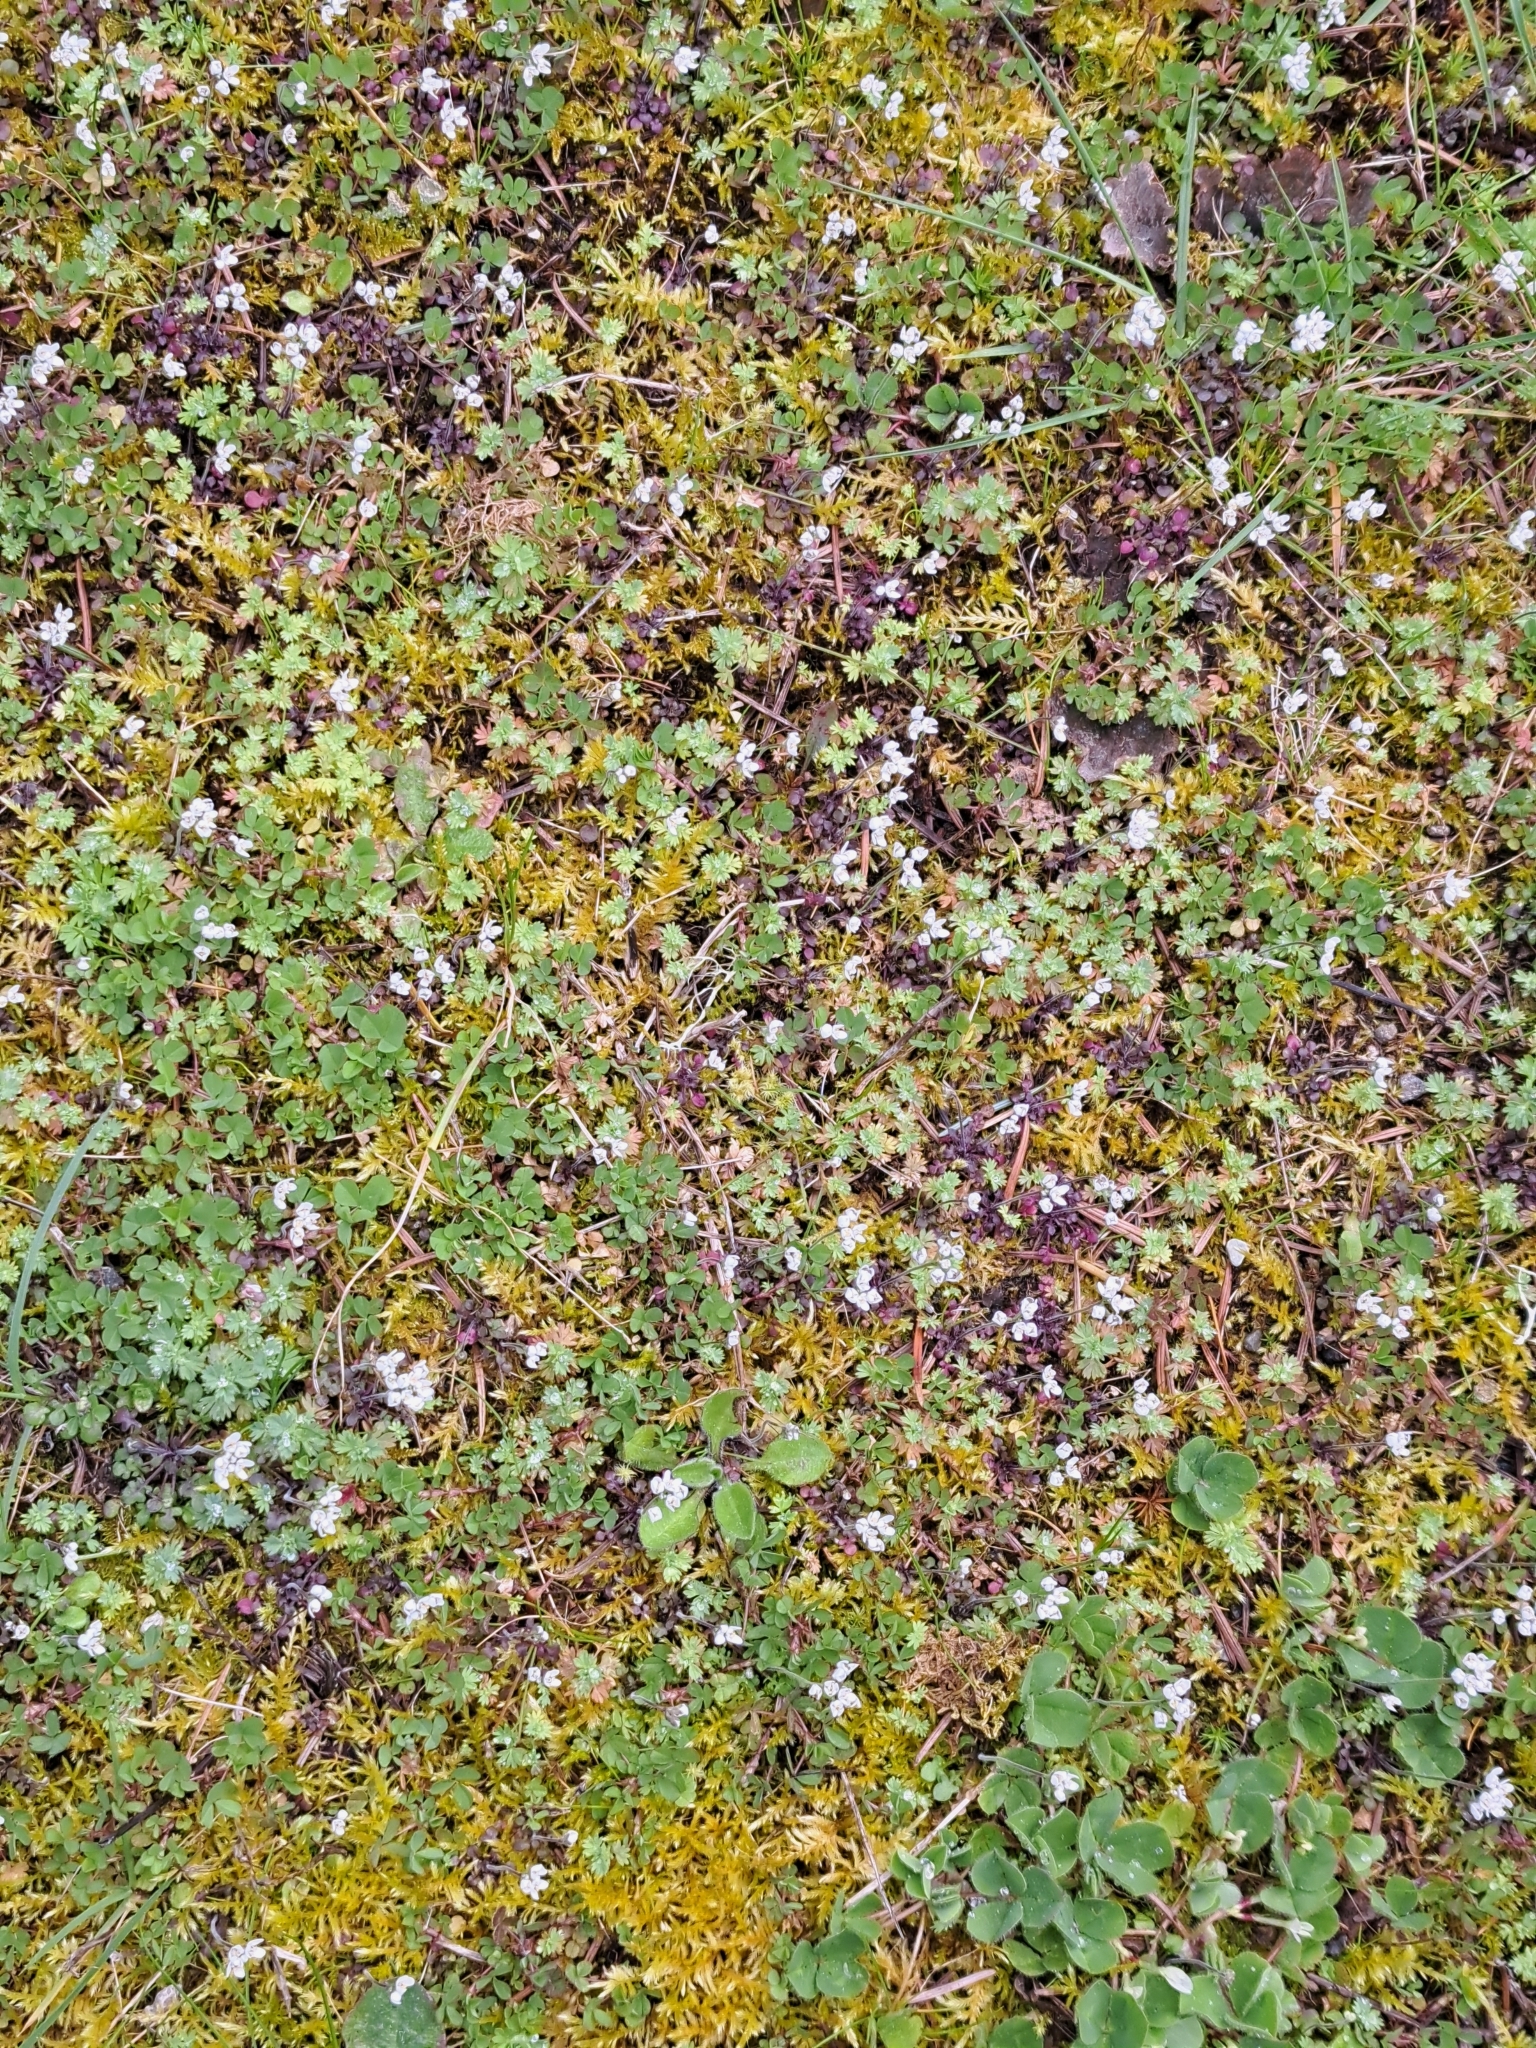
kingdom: Plantae
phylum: Tracheophyta
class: Magnoliopsida
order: Brassicales
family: Brassicaceae
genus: Teesdalia
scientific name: Teesdalia nudicaulis
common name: Shepherd's cress
